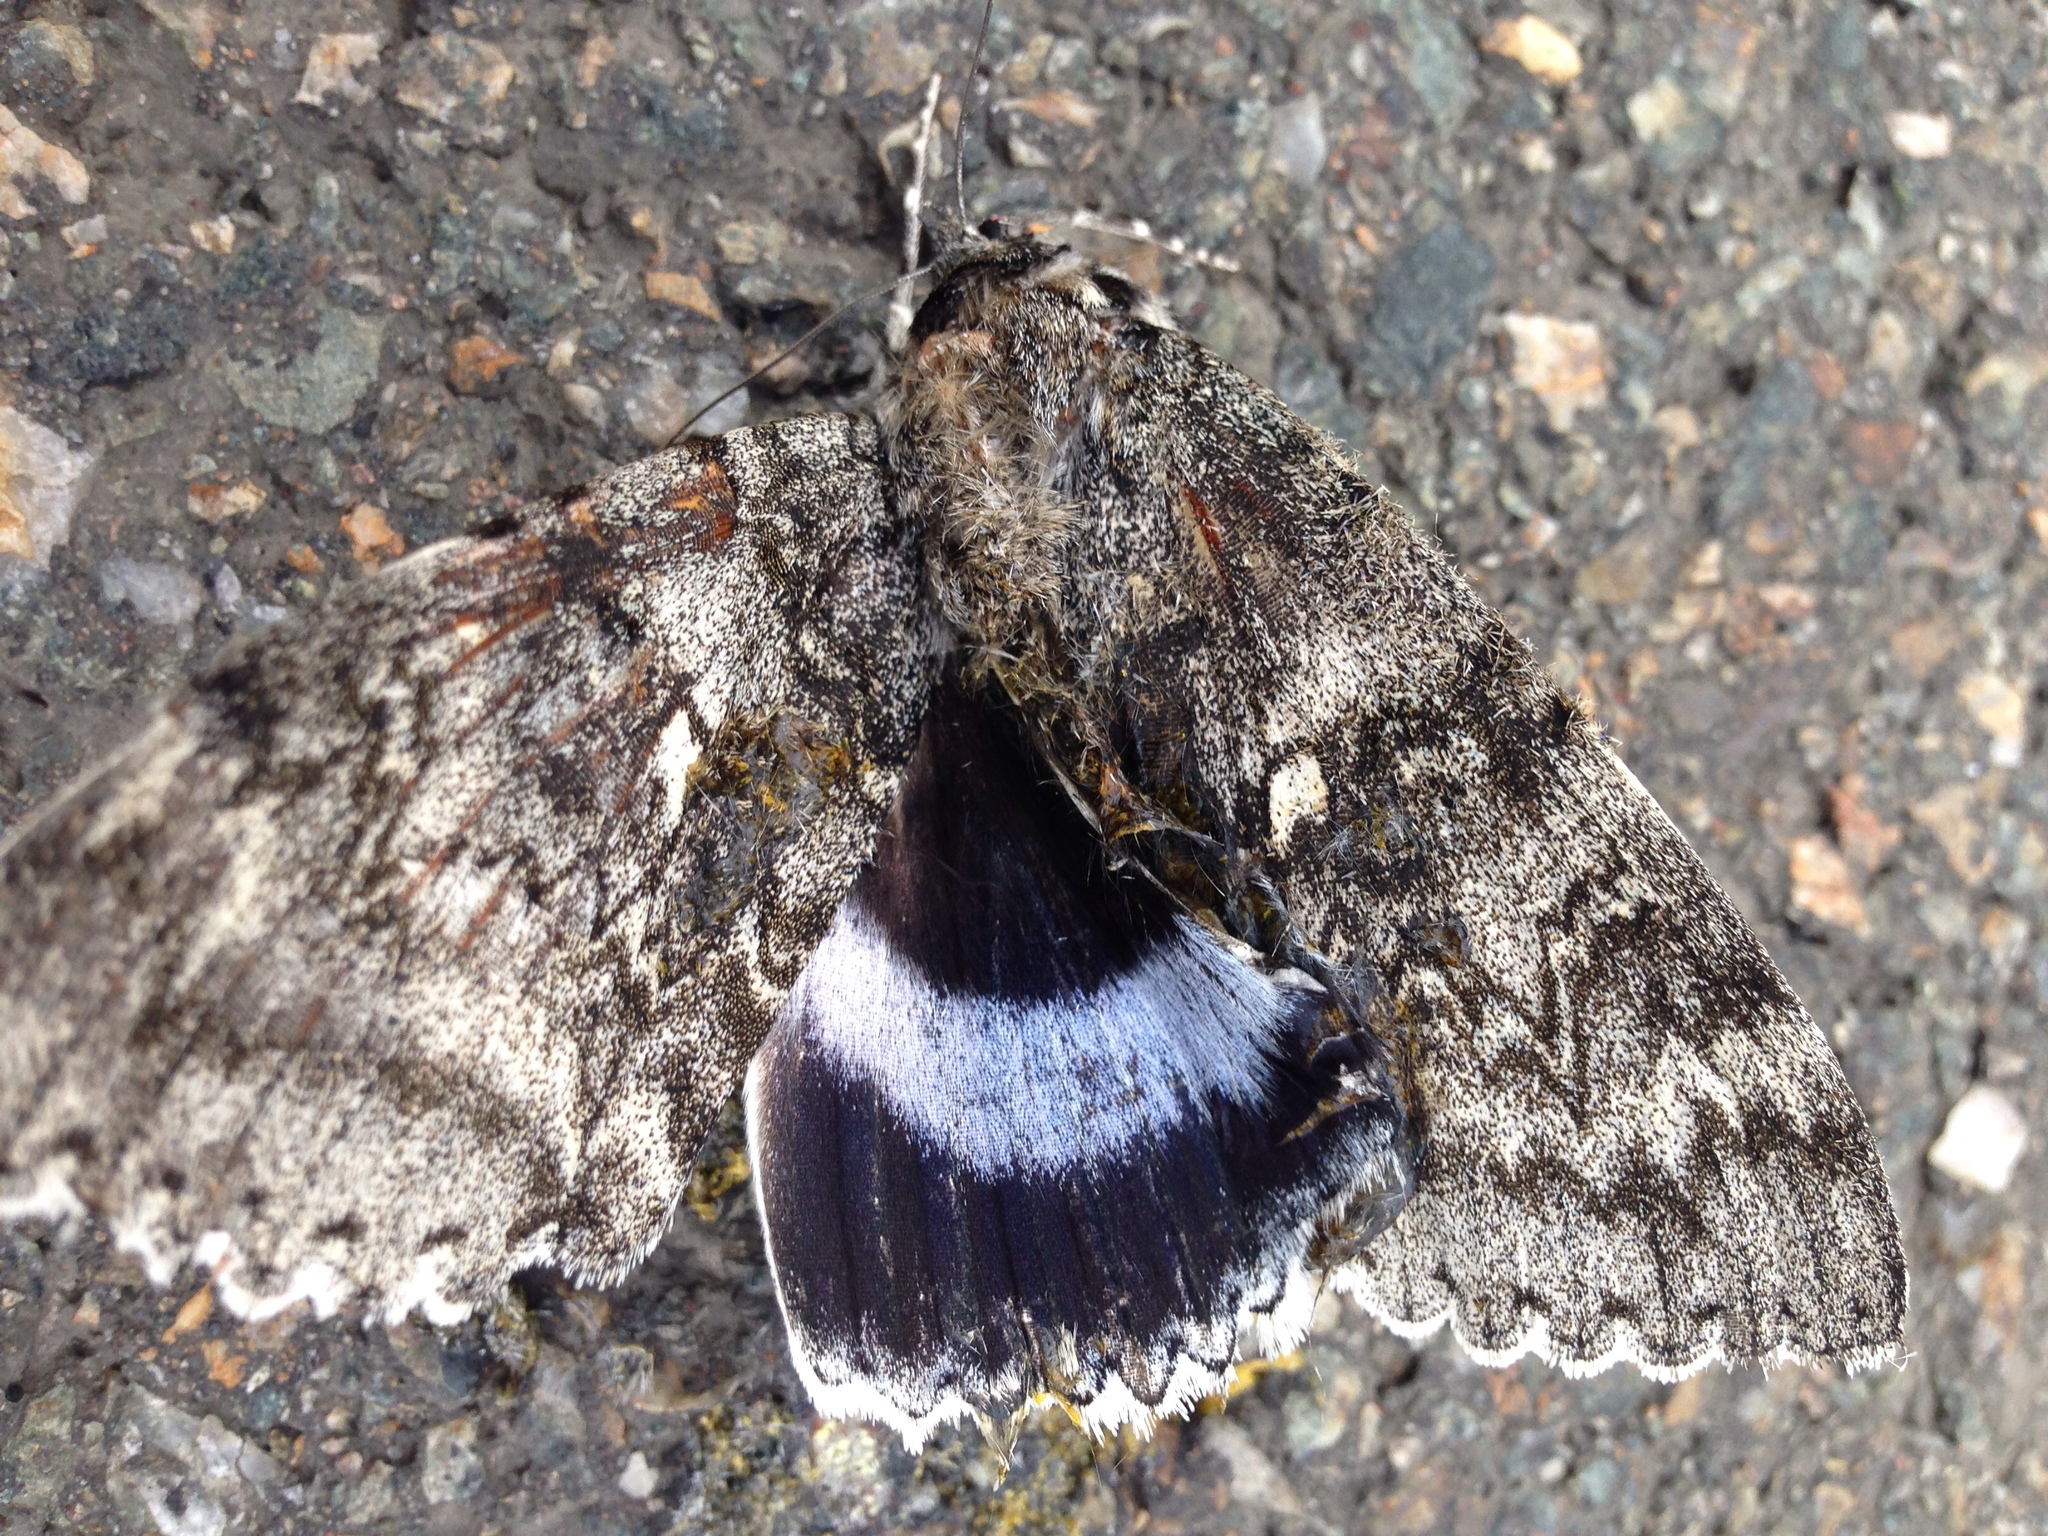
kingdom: Animalia
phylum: Arthropoda
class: Insecta
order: Lepidoptera
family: Erebidae
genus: Catocala
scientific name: Catocala fraxini
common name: Clifden nonpareil
